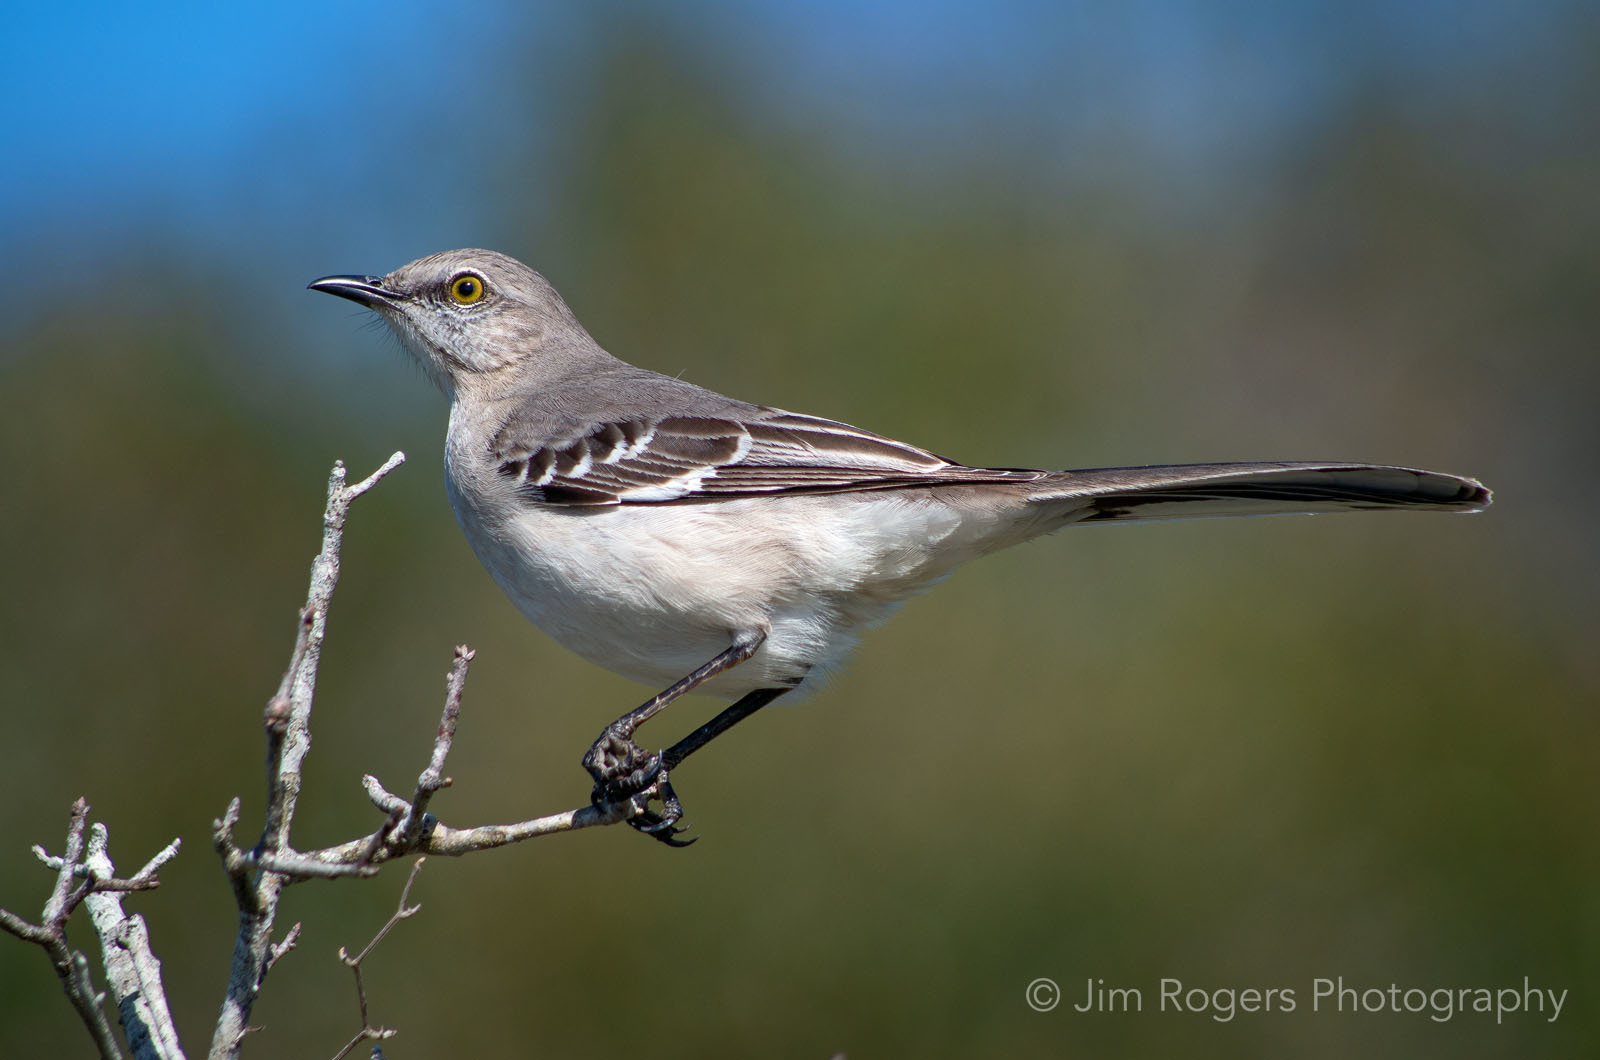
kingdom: Animalia
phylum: Chordata
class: Aves
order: Passeriformes
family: Mimidae
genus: Mimus
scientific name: Mimus polyglottos
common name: Northern mockingbird
